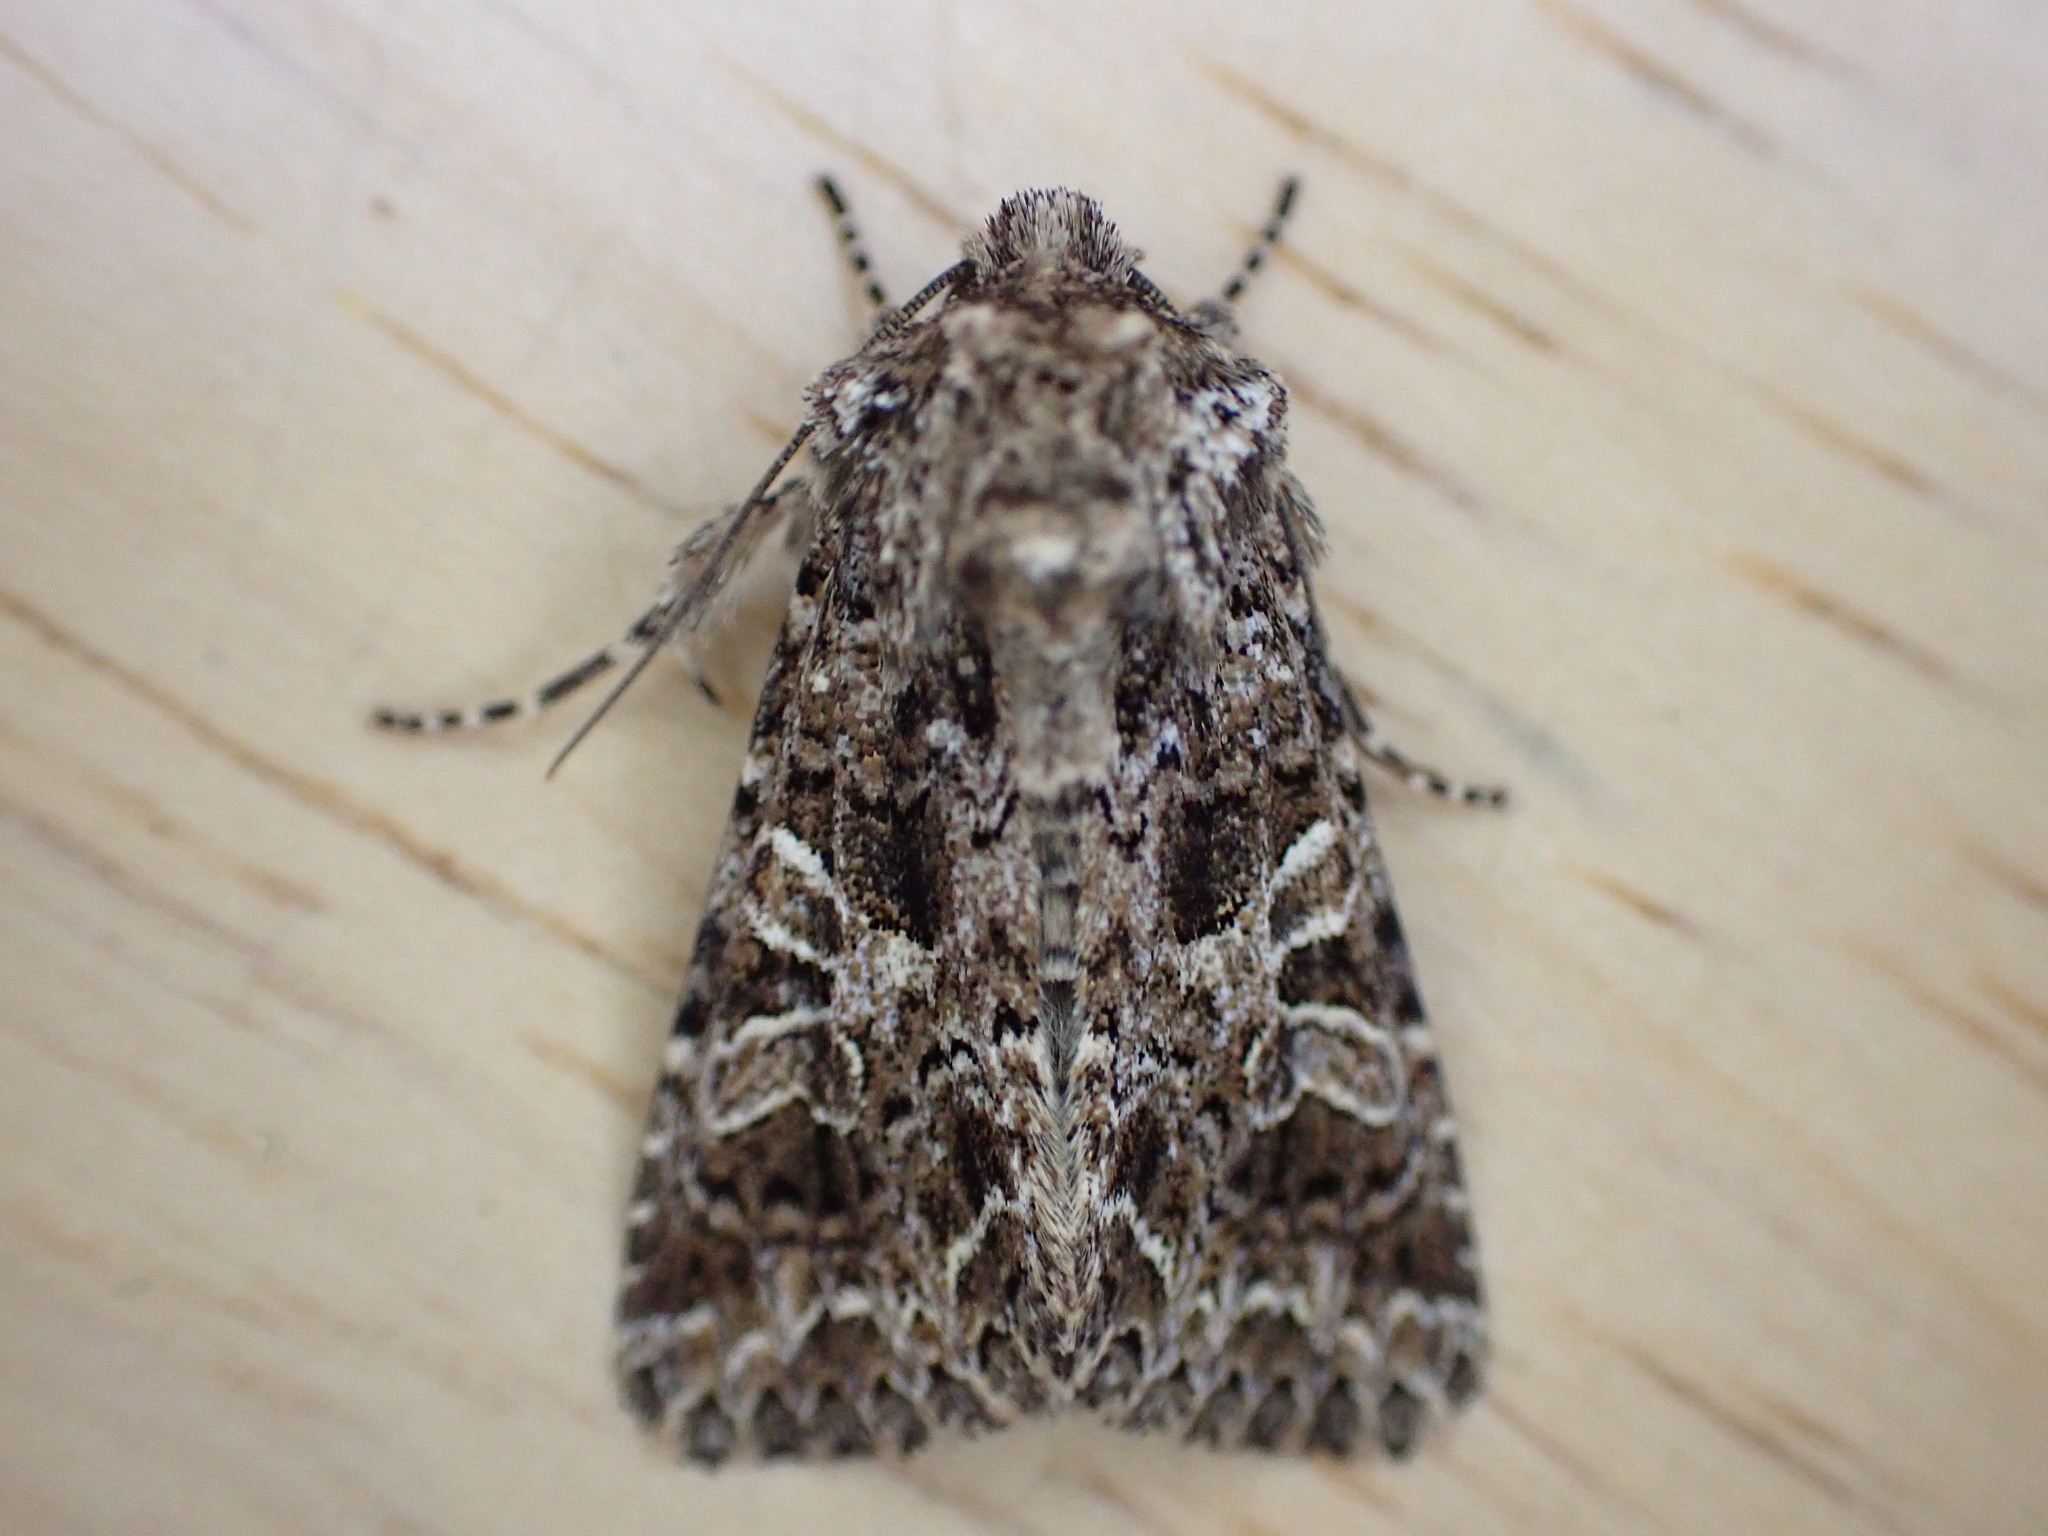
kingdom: Animalia
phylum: Arthropoda
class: Insecta
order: Lepidoptera
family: Noctuidae
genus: Hadena
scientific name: Hadena bicruris
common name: Lychnis
